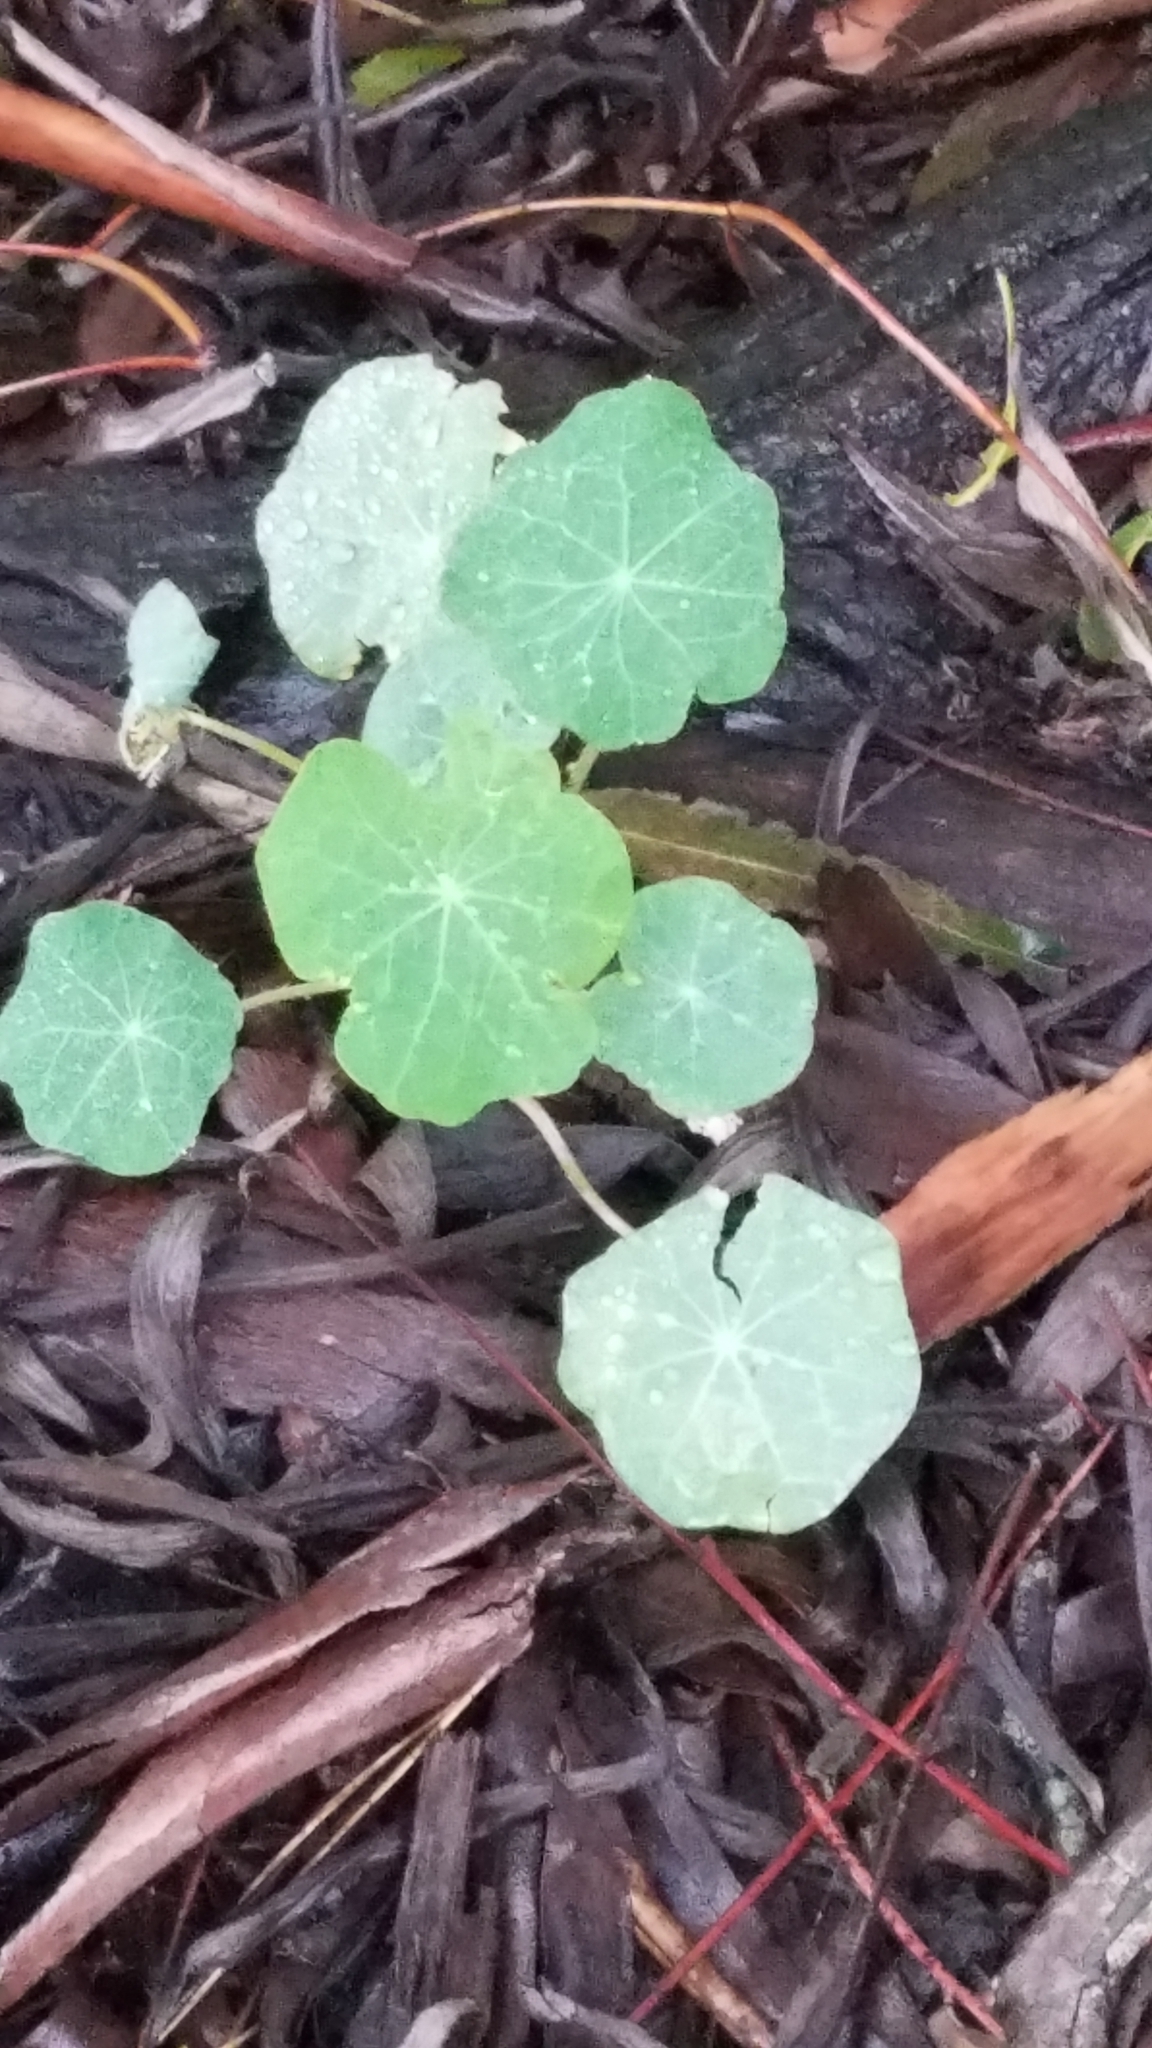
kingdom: Plantae
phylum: Tracheophyta
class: Magnoliopsida
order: Brassicales
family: Tropaeolaceae
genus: Tropaeolum
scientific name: Tropaeolum majus
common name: Nasturtium
